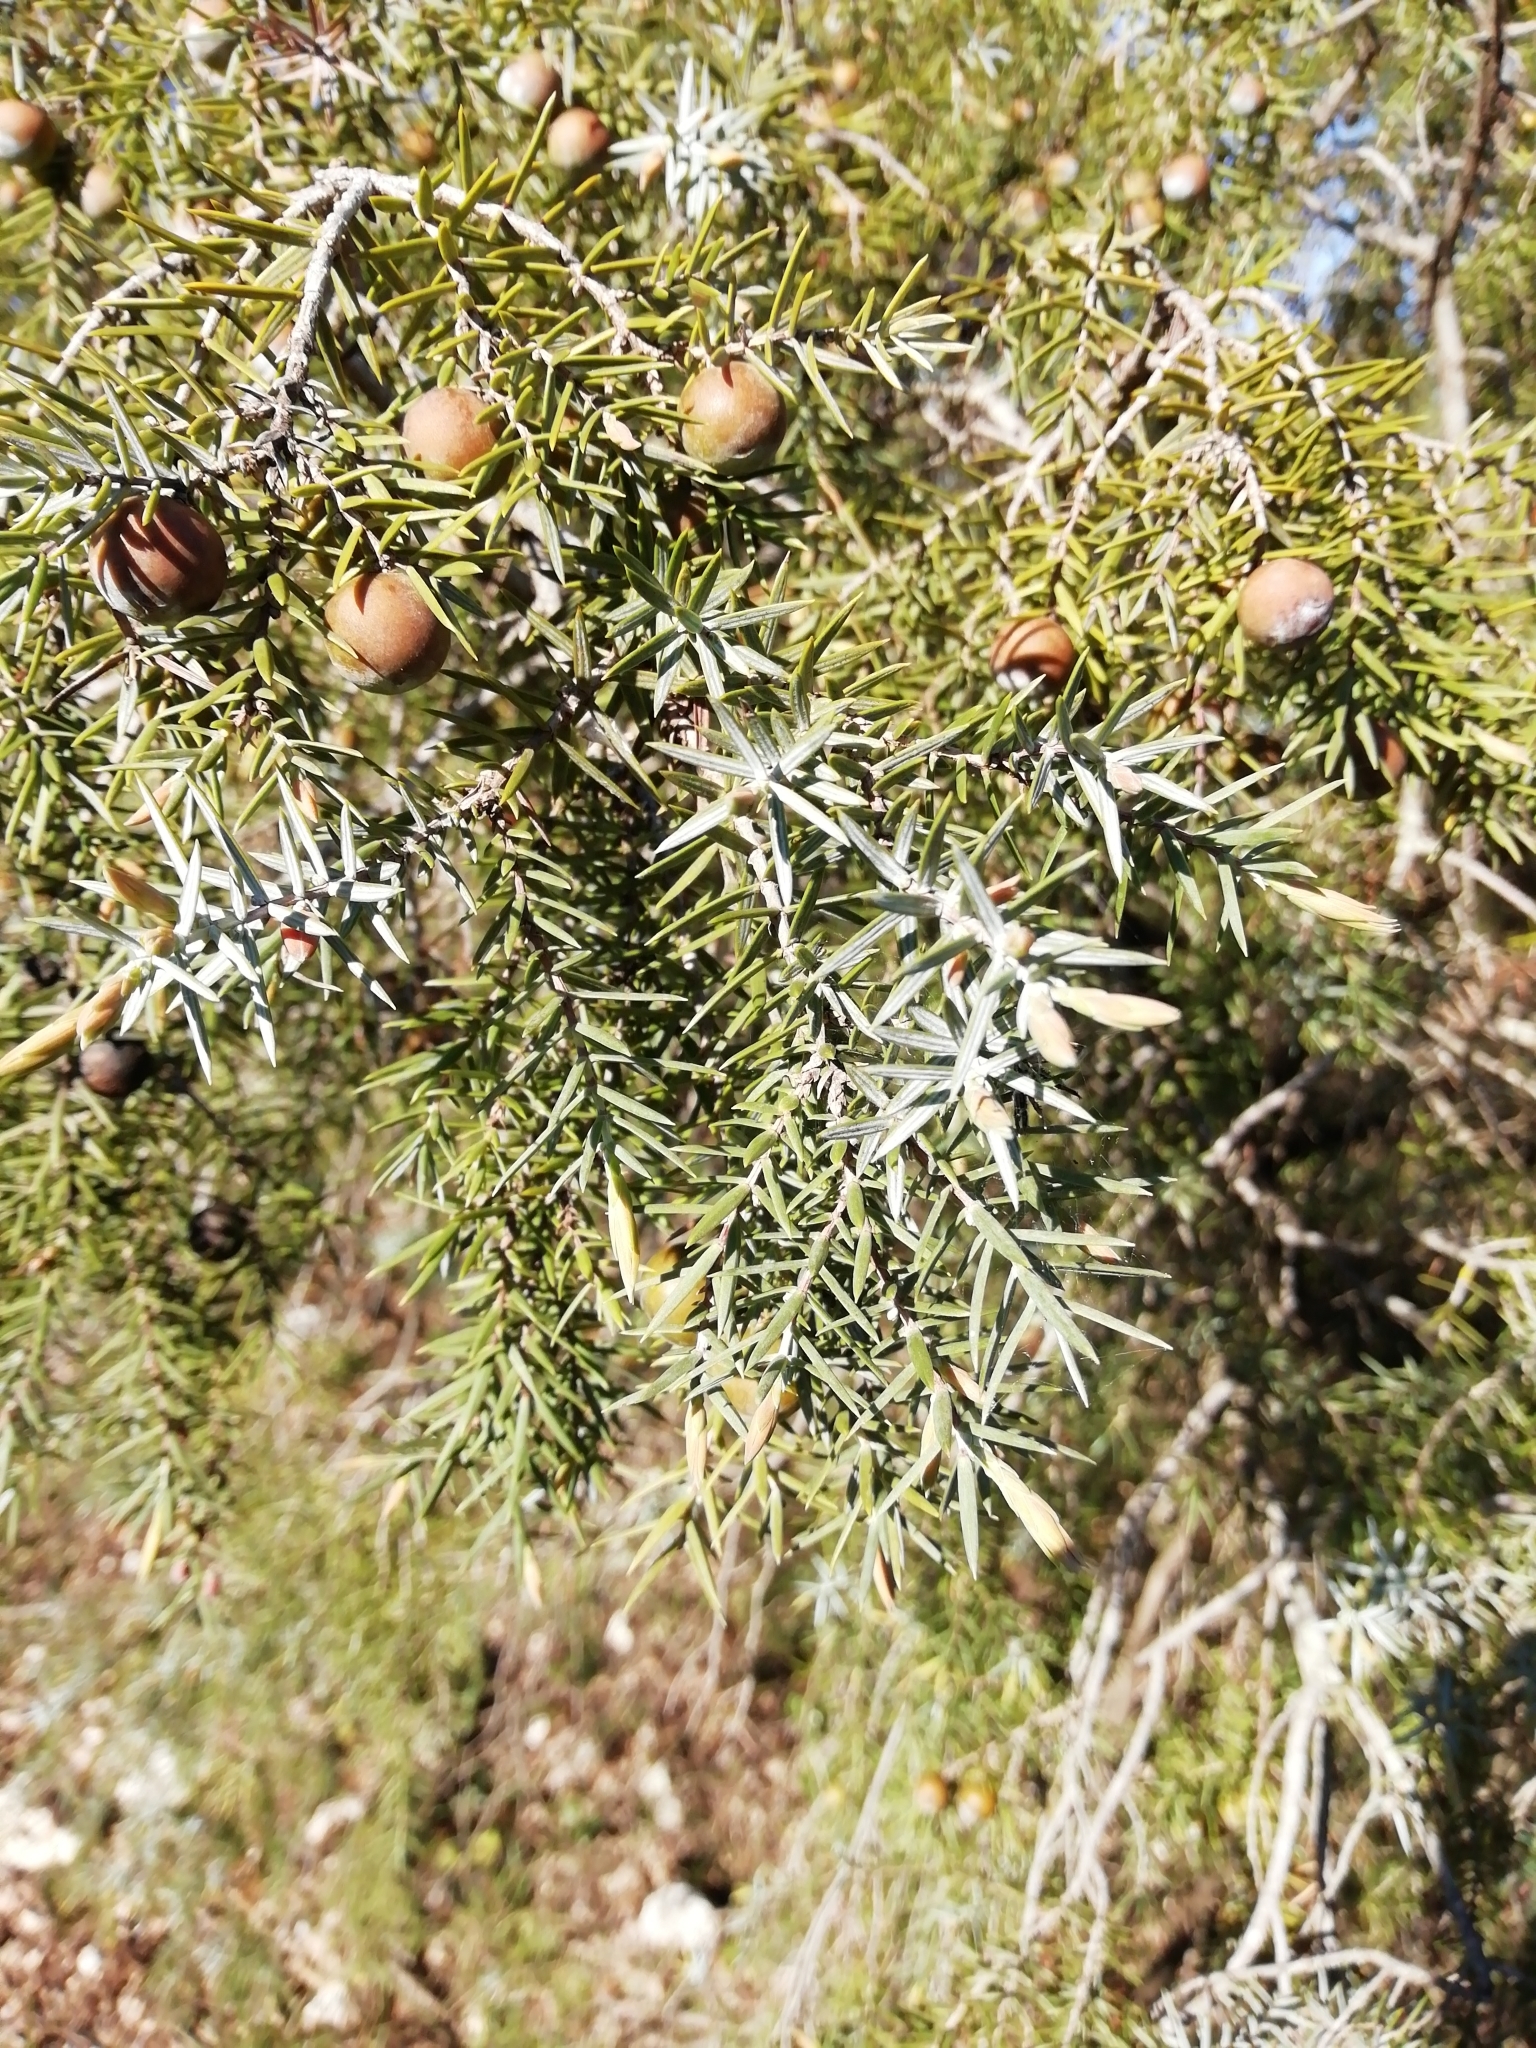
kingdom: Plantae
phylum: Tracheophyta
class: Pinopsida
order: Pinales
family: Cupressaceae
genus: Juniperus
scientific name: Juniperus oxycedrus
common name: Prickly juniper
